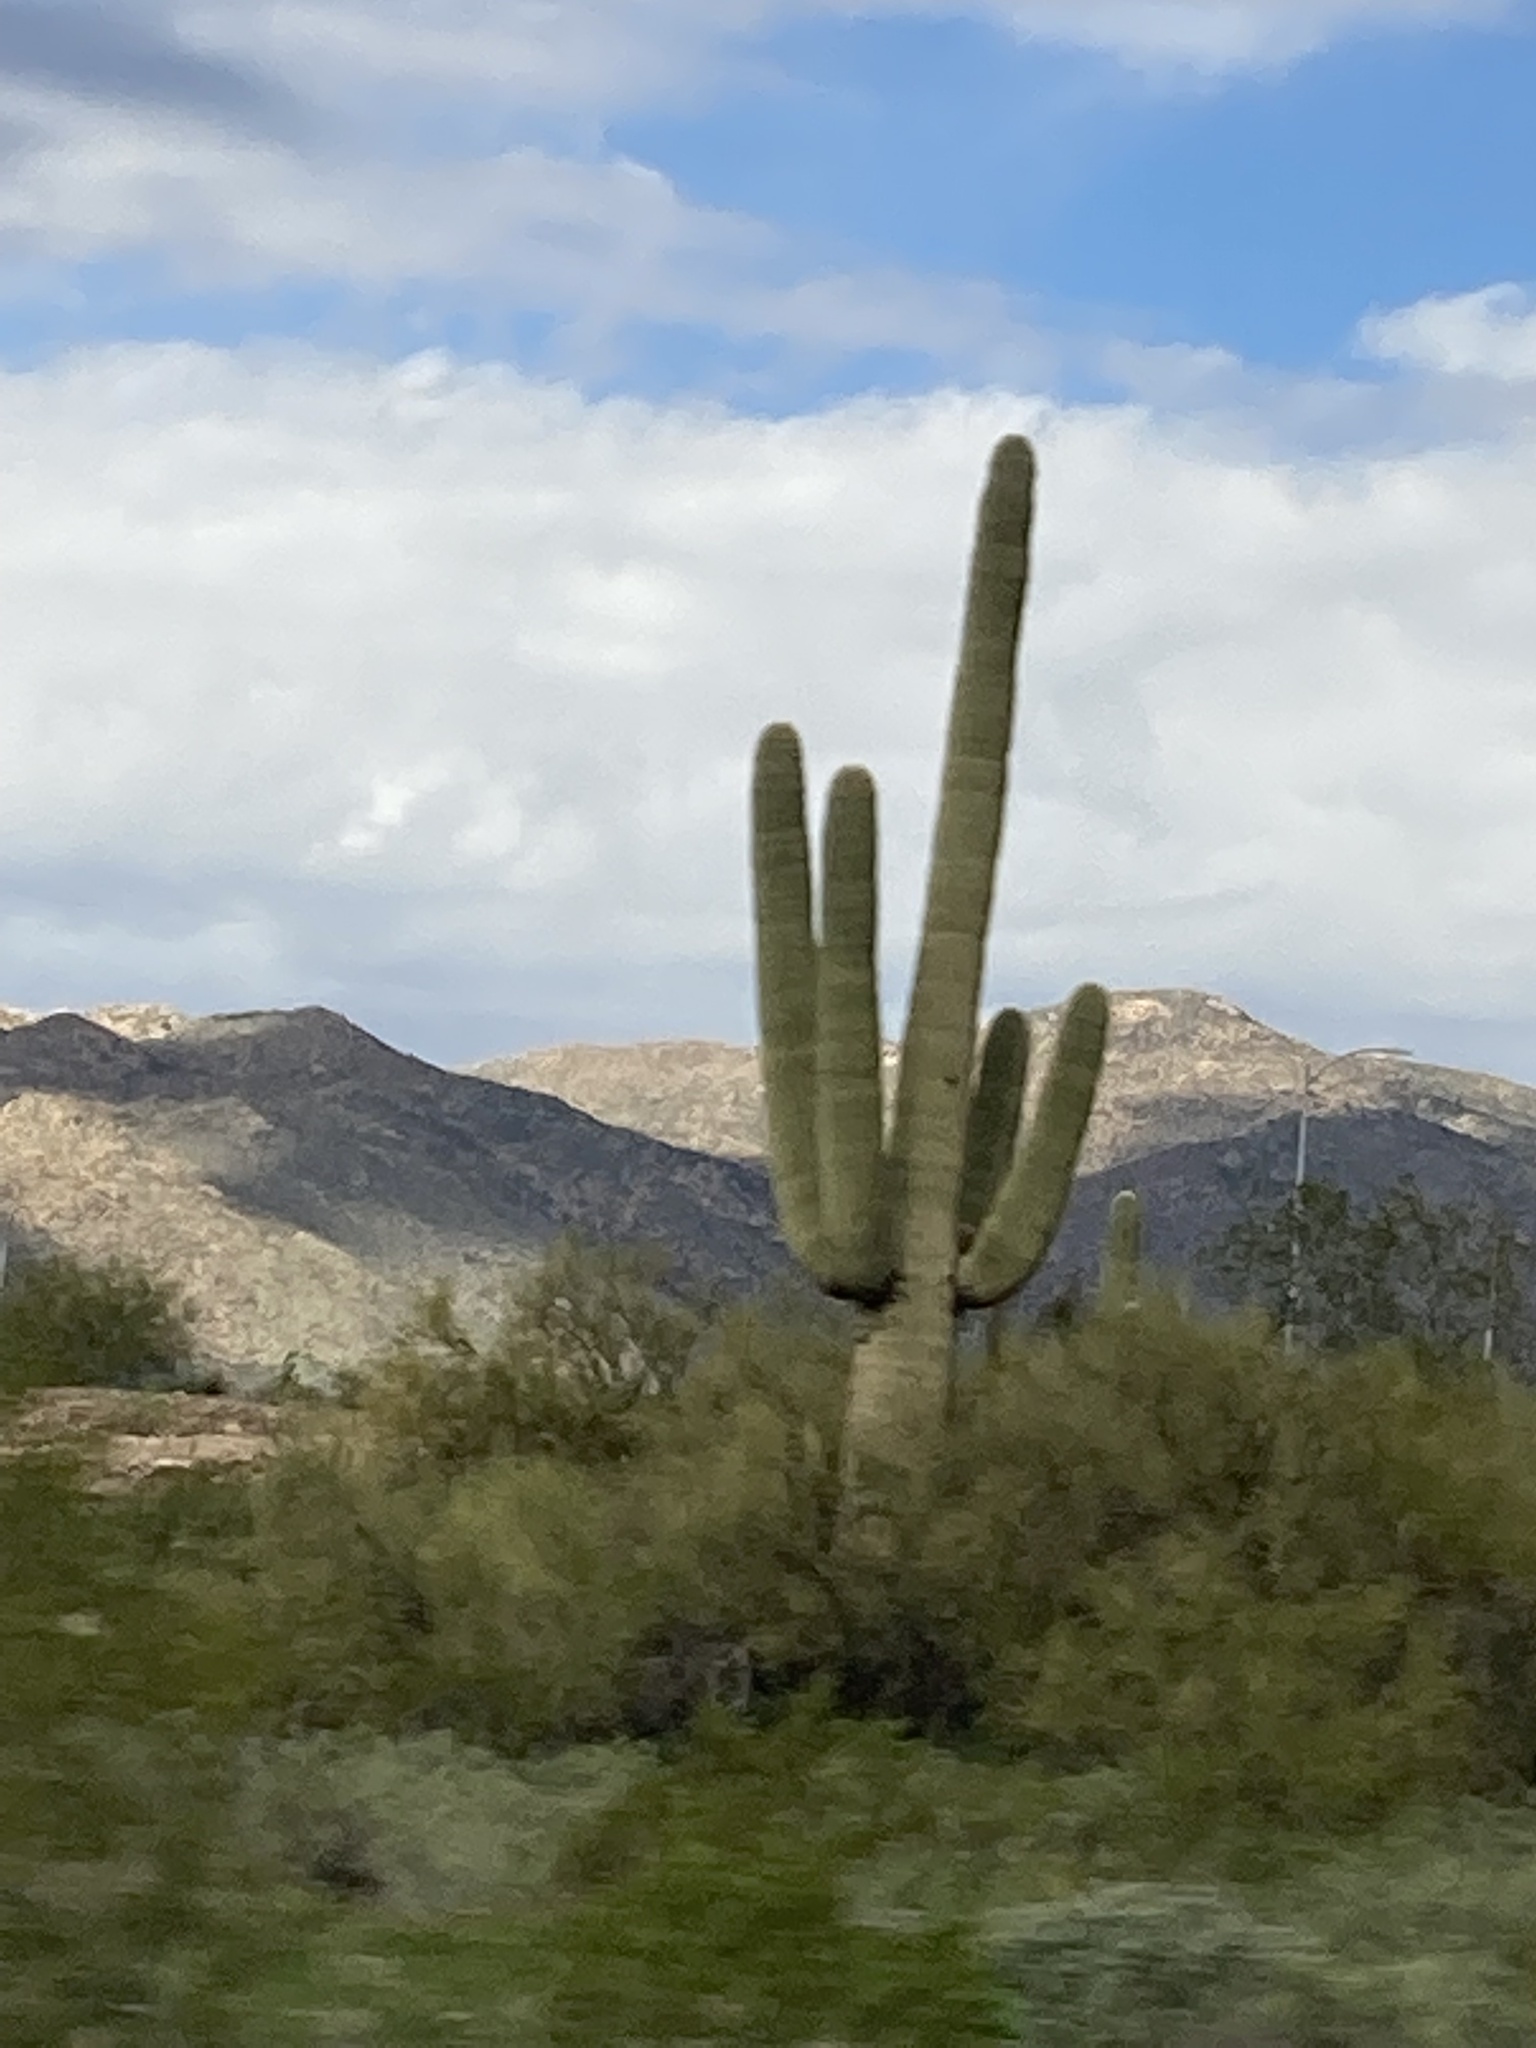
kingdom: Plantae
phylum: Tracheophyta
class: Magnoliopsida
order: Caryophyllales
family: Cactaceae
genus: Carnegiea
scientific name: Carnegiea gigantea
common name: Saguaro
